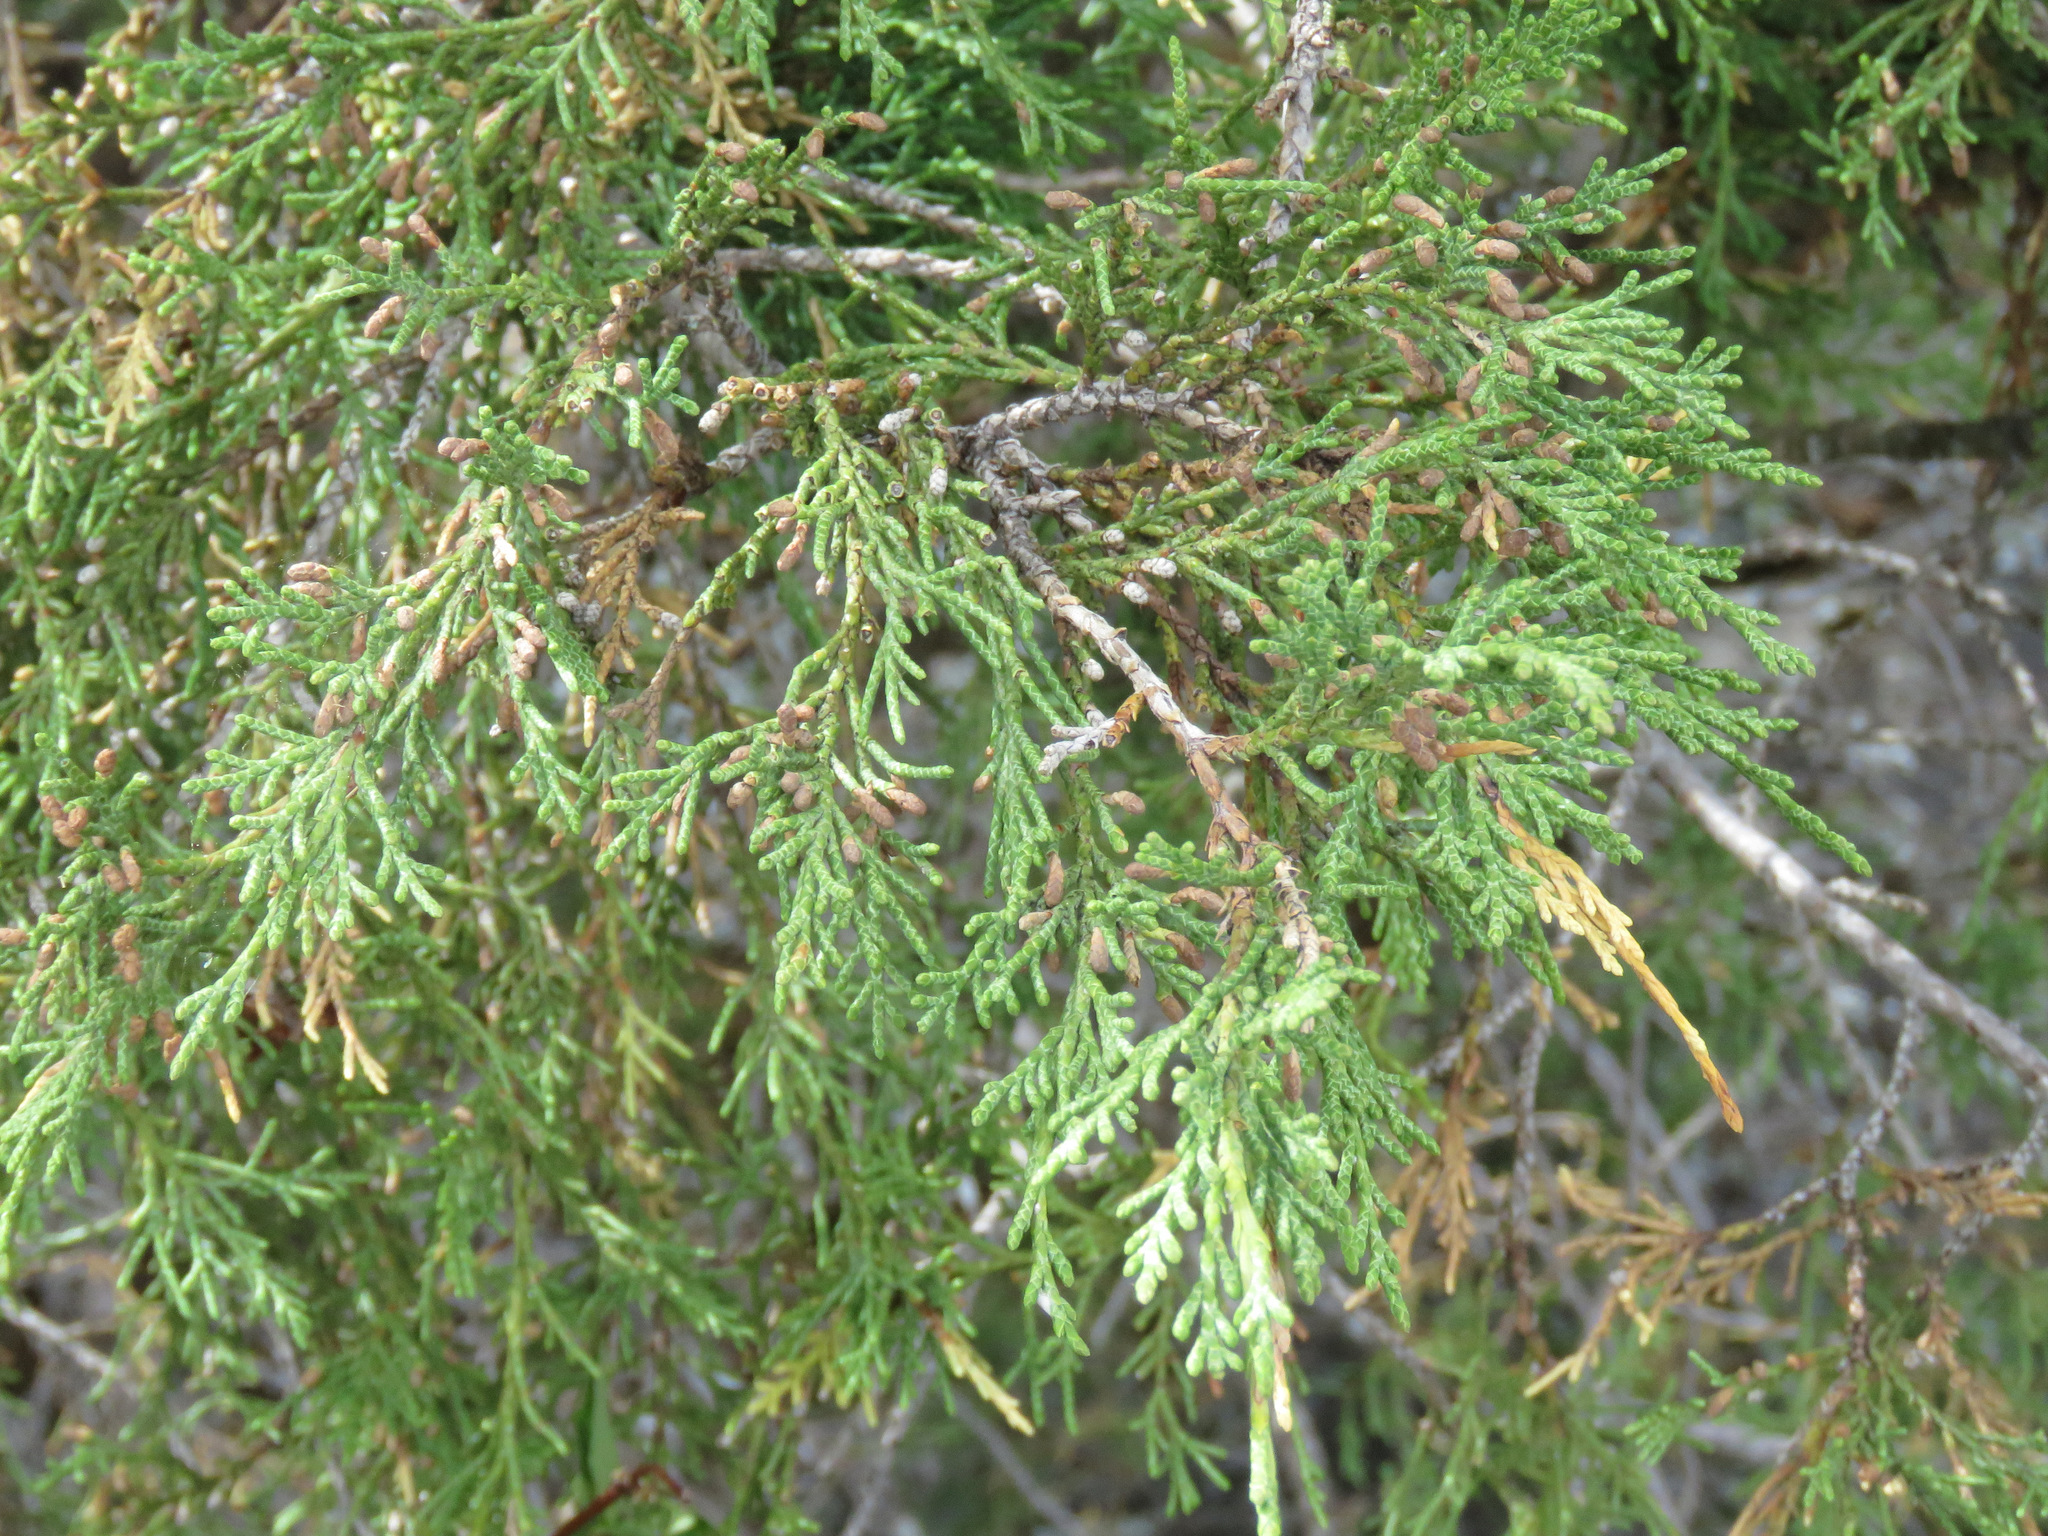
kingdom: Plantae
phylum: Tracheophyta
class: Pinopsida
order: Pinales
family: Cupressaceae
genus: Juniperus
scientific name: Juniperus scopulorum
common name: Rocky mountain juniper
